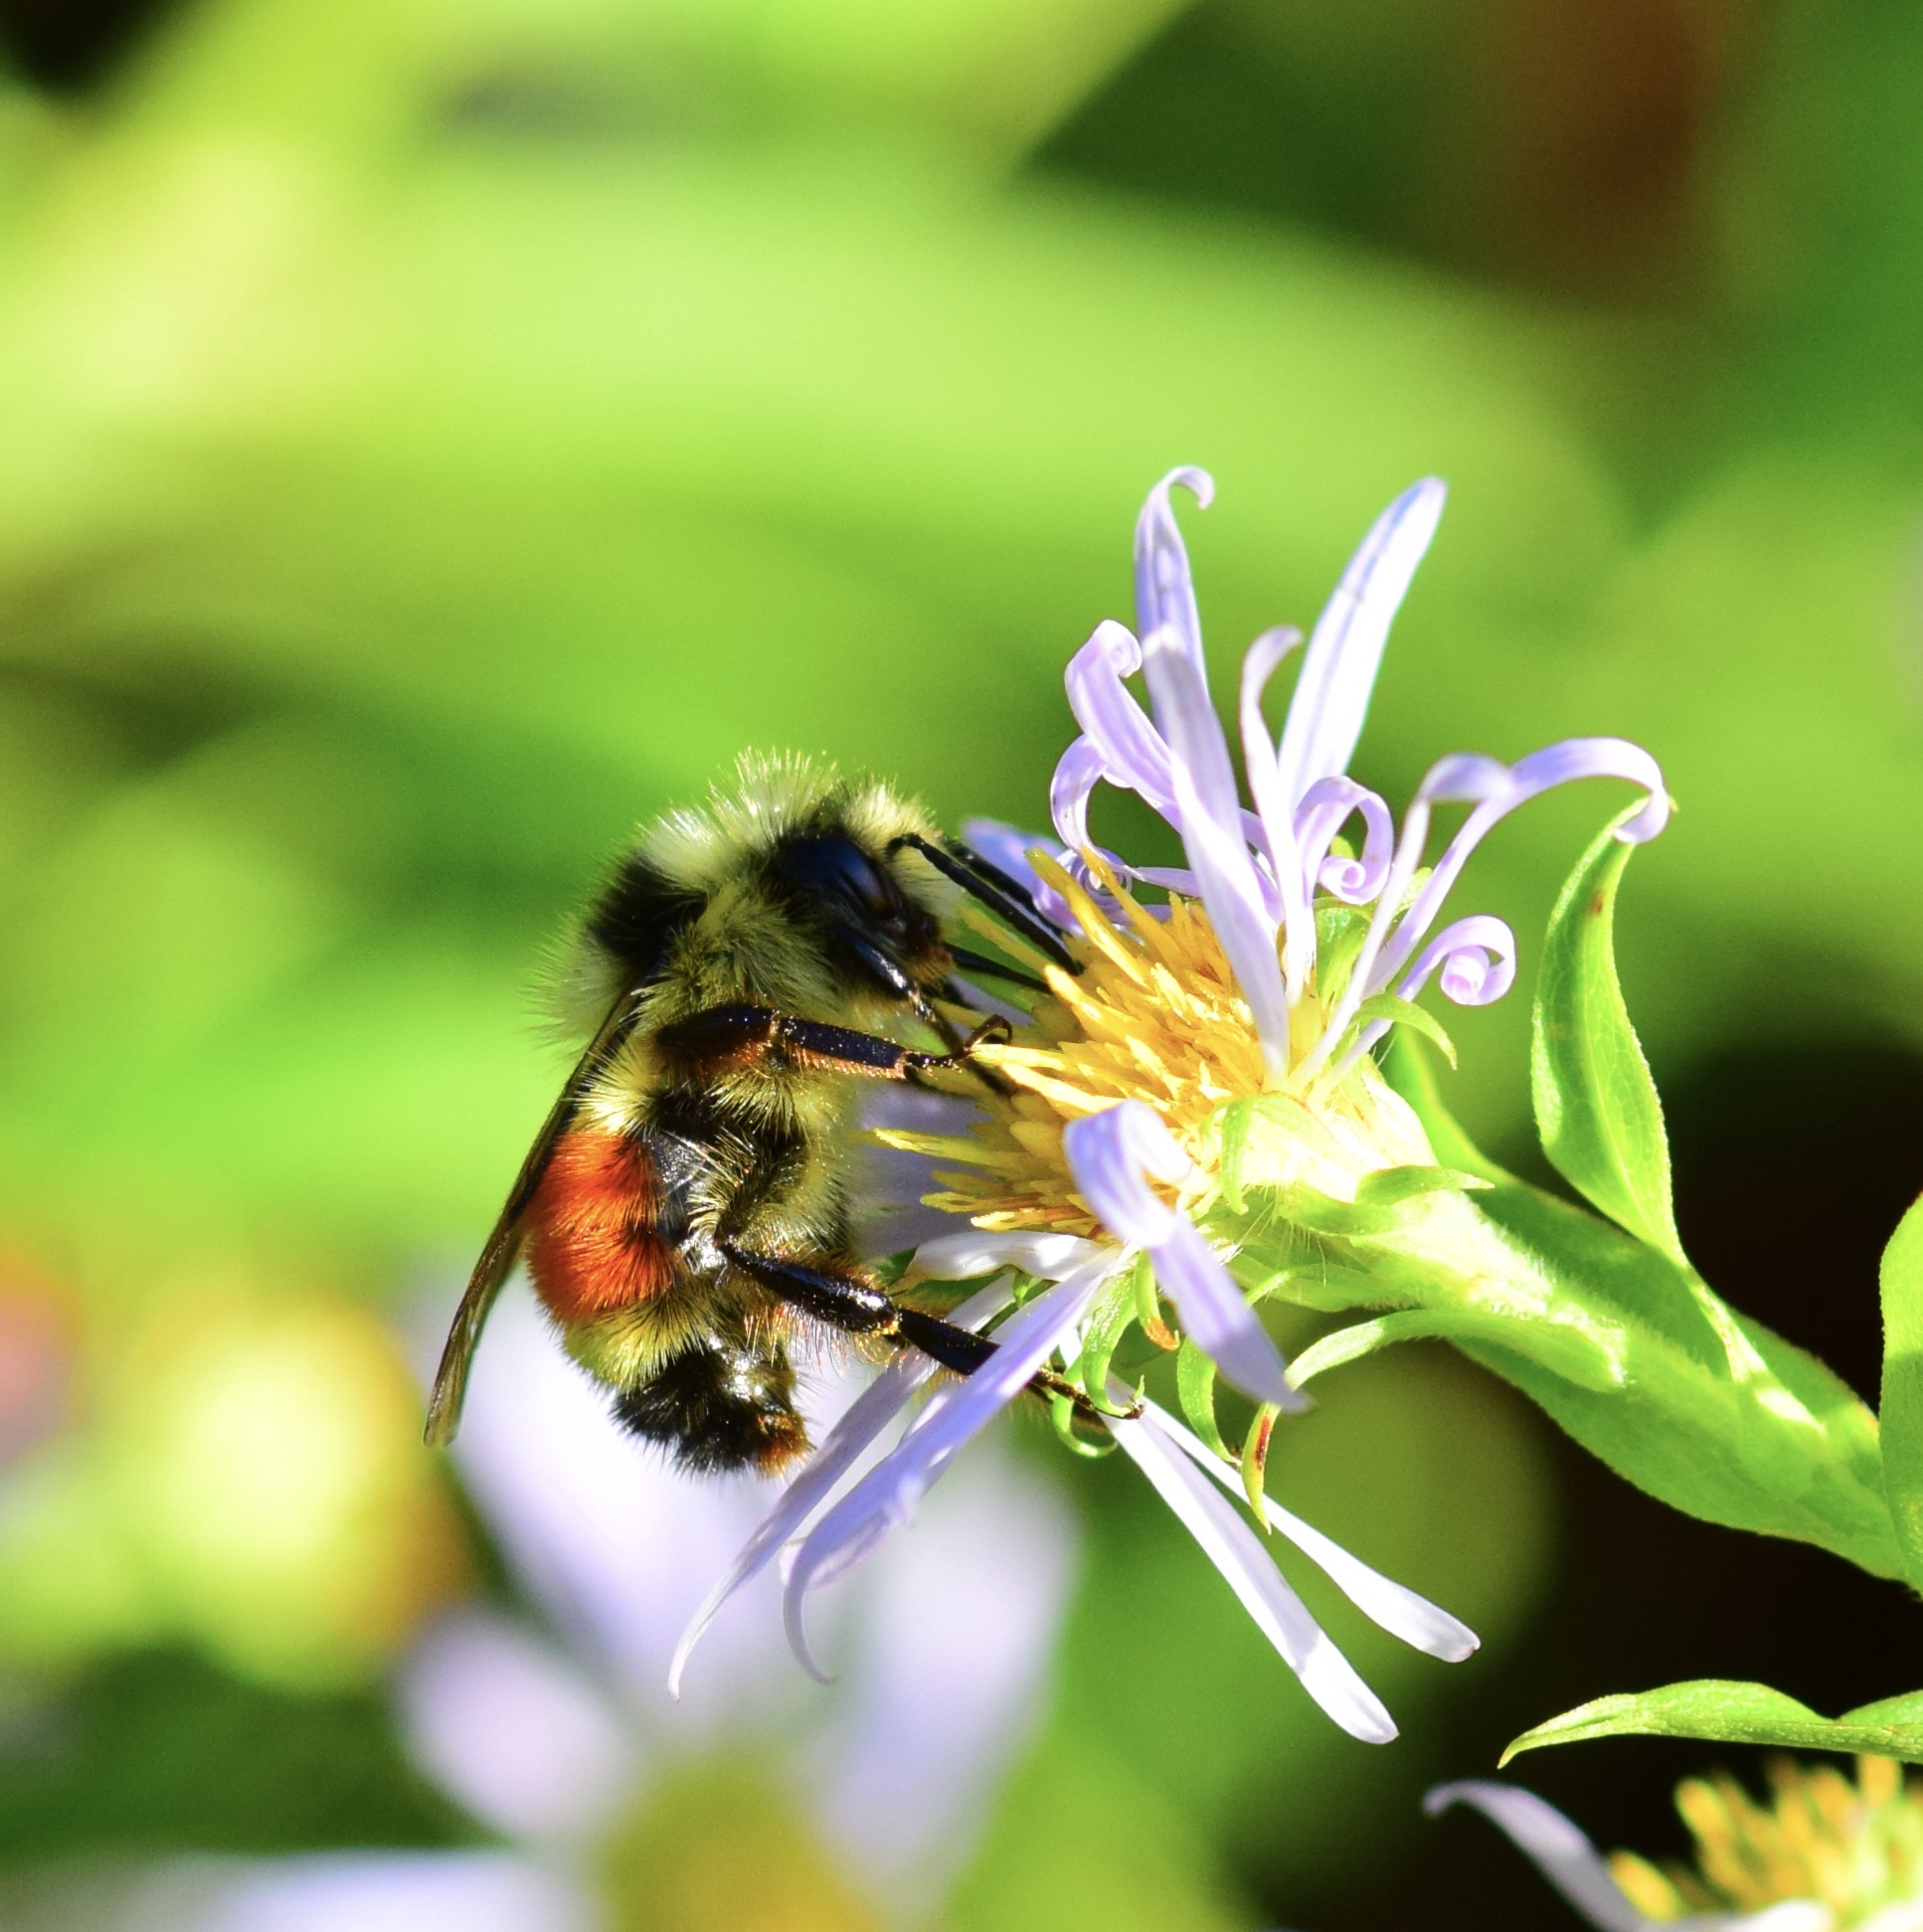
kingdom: Animalia
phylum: Arthropoda
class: Insecta
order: Hymenoptera
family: Apidae
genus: Bombus
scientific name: Bombus ternarius
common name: Tri-colored bumble bee
